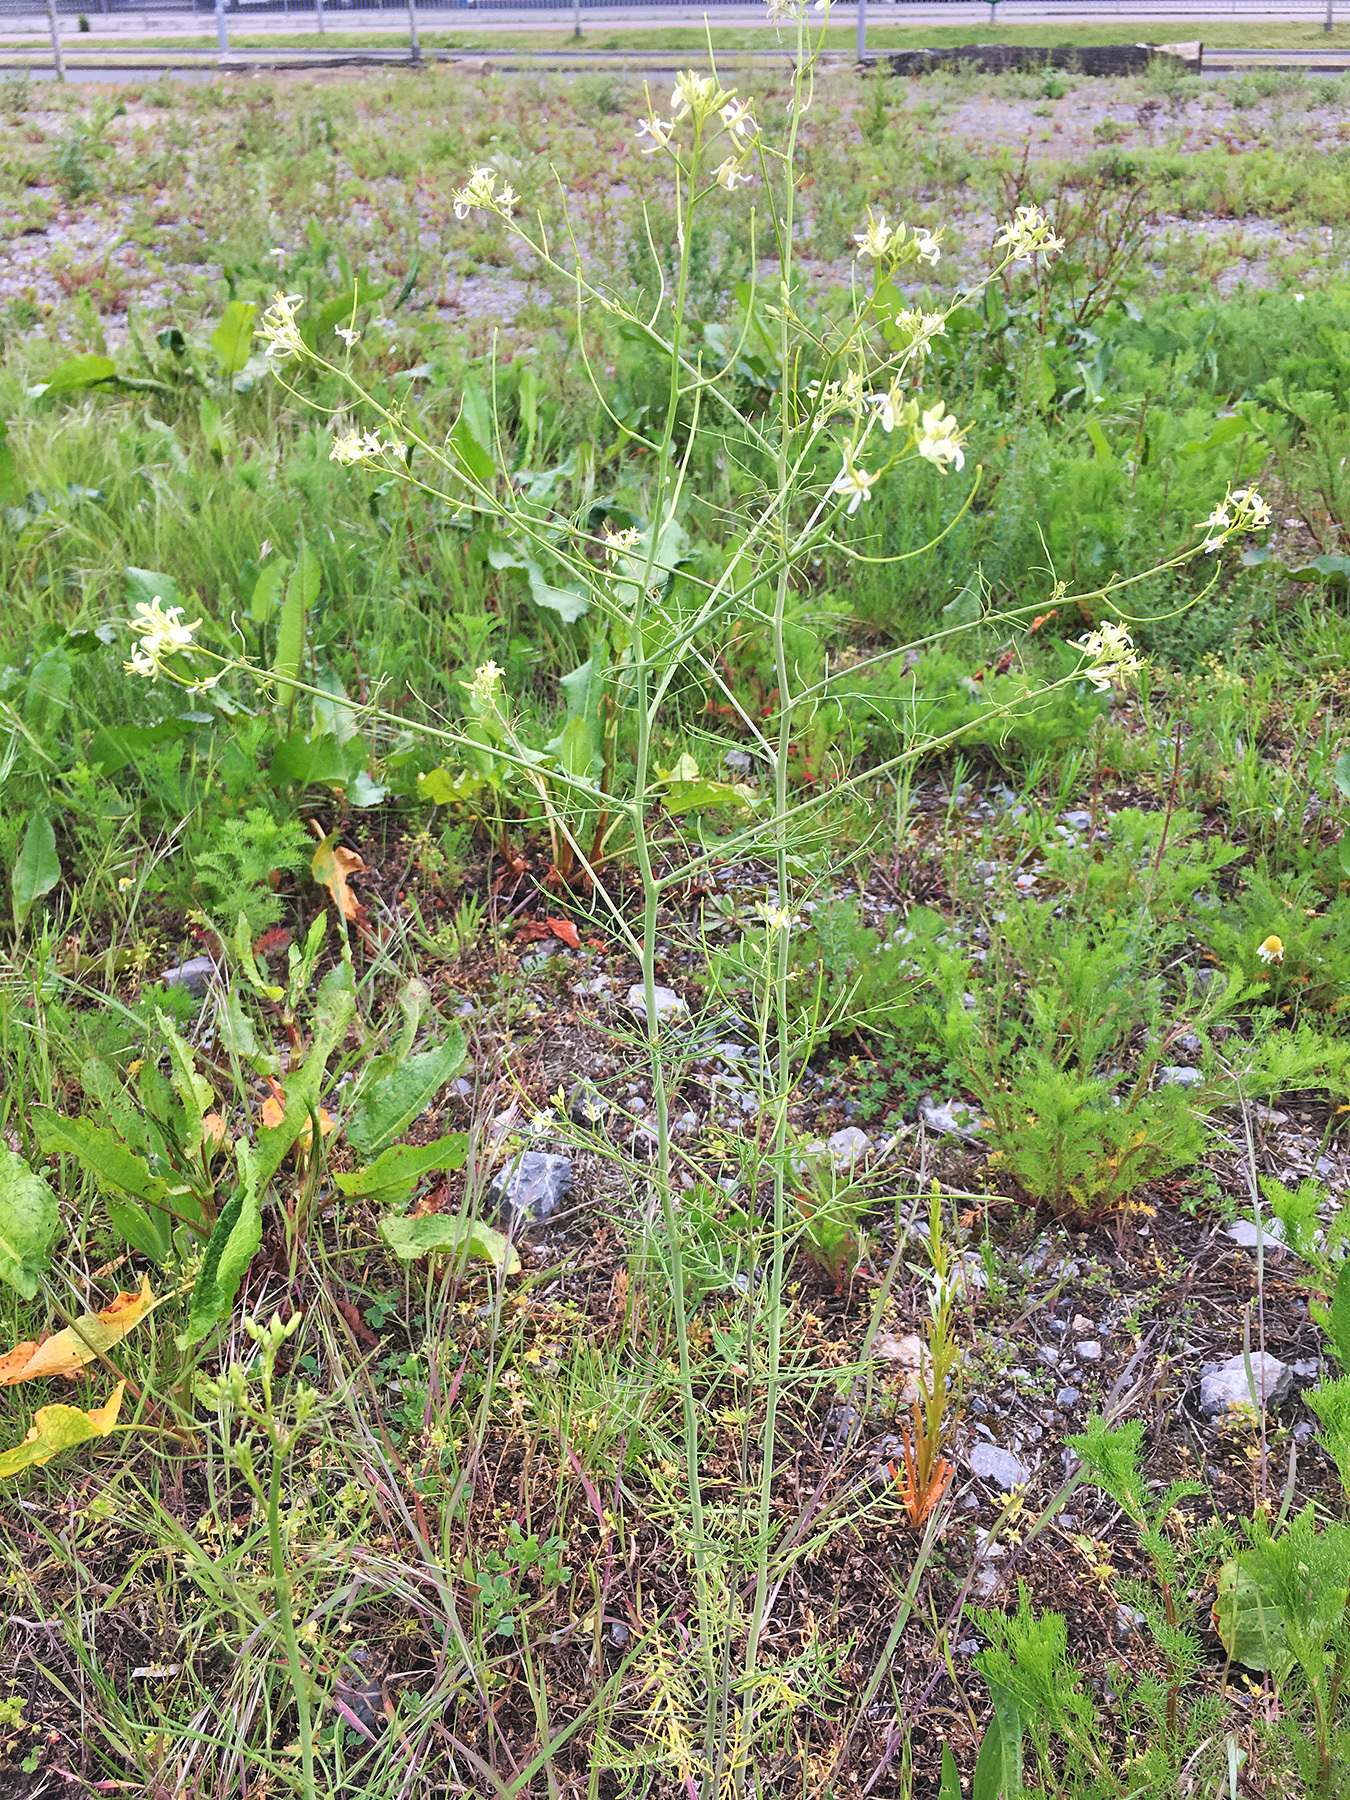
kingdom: Plantae
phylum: Tracheophyta
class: Magnoliopsida
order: Brassicales
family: Brassicaceae
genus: Sisymbrium
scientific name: Sisymbrium altissimum
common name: Tall rocket
